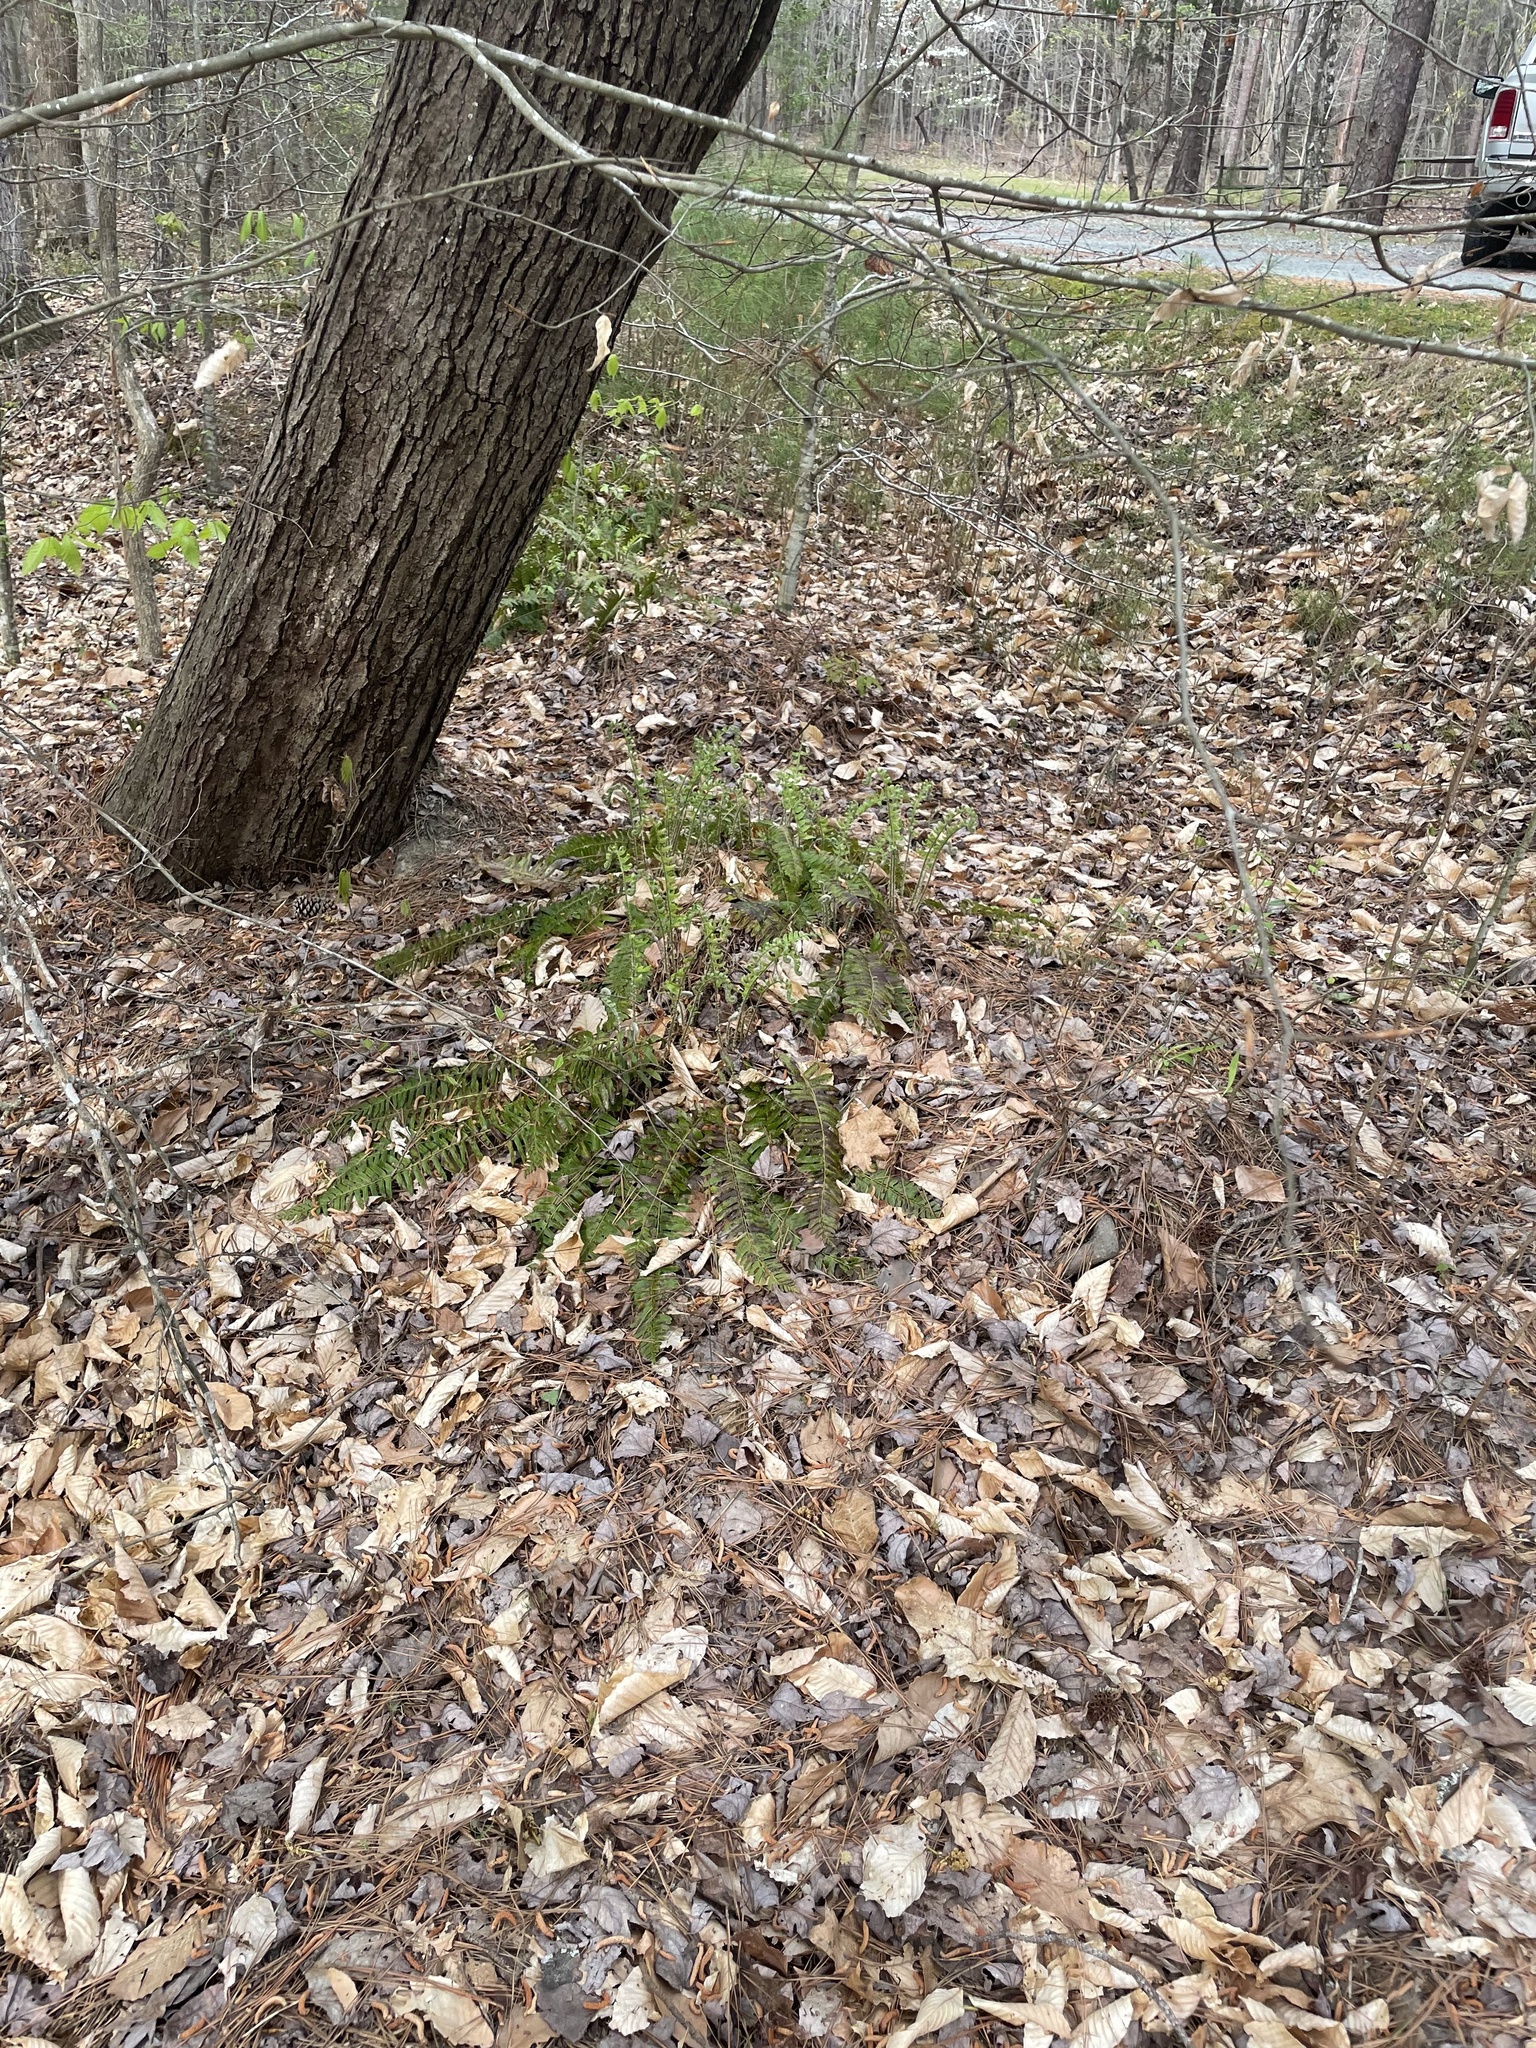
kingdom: Plantae
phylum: Tracheophyta
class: Polypodiopsida
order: Polypodiales
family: Dryopteridaceae
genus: Polystichum
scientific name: Polystichum acrostichoides
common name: Christmas fern
